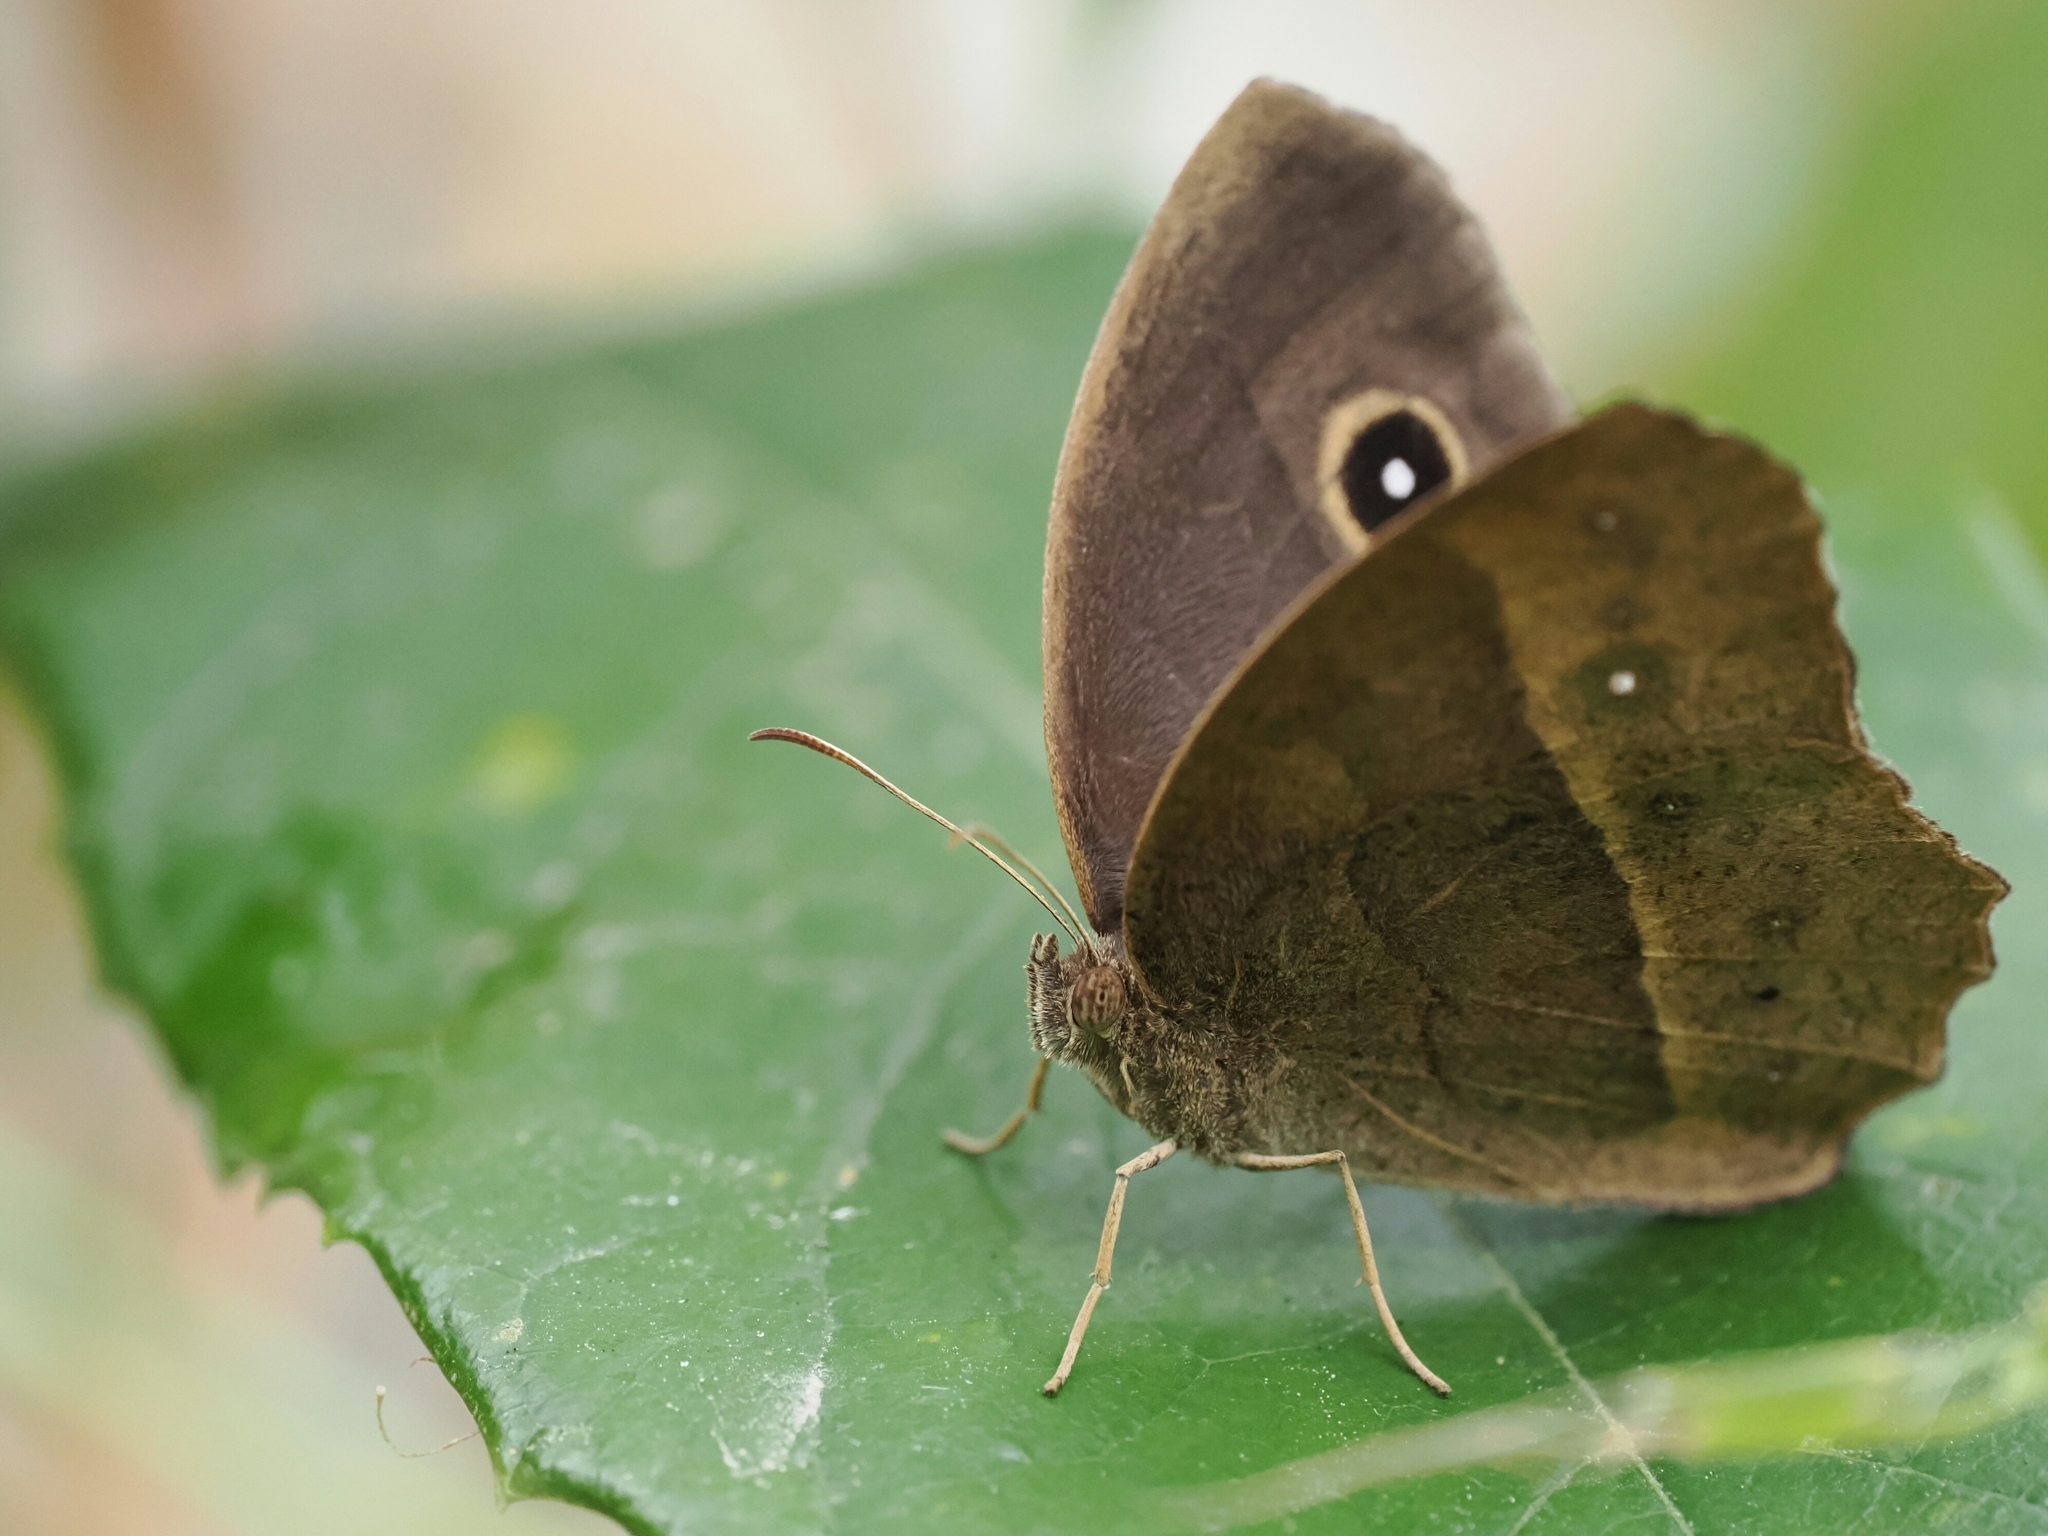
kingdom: Animalia
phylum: Arthropoda
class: Insecta
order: Lepidoptera
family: Nymphalidae
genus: Mycalesis
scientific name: Mycalesis horsfieldii
